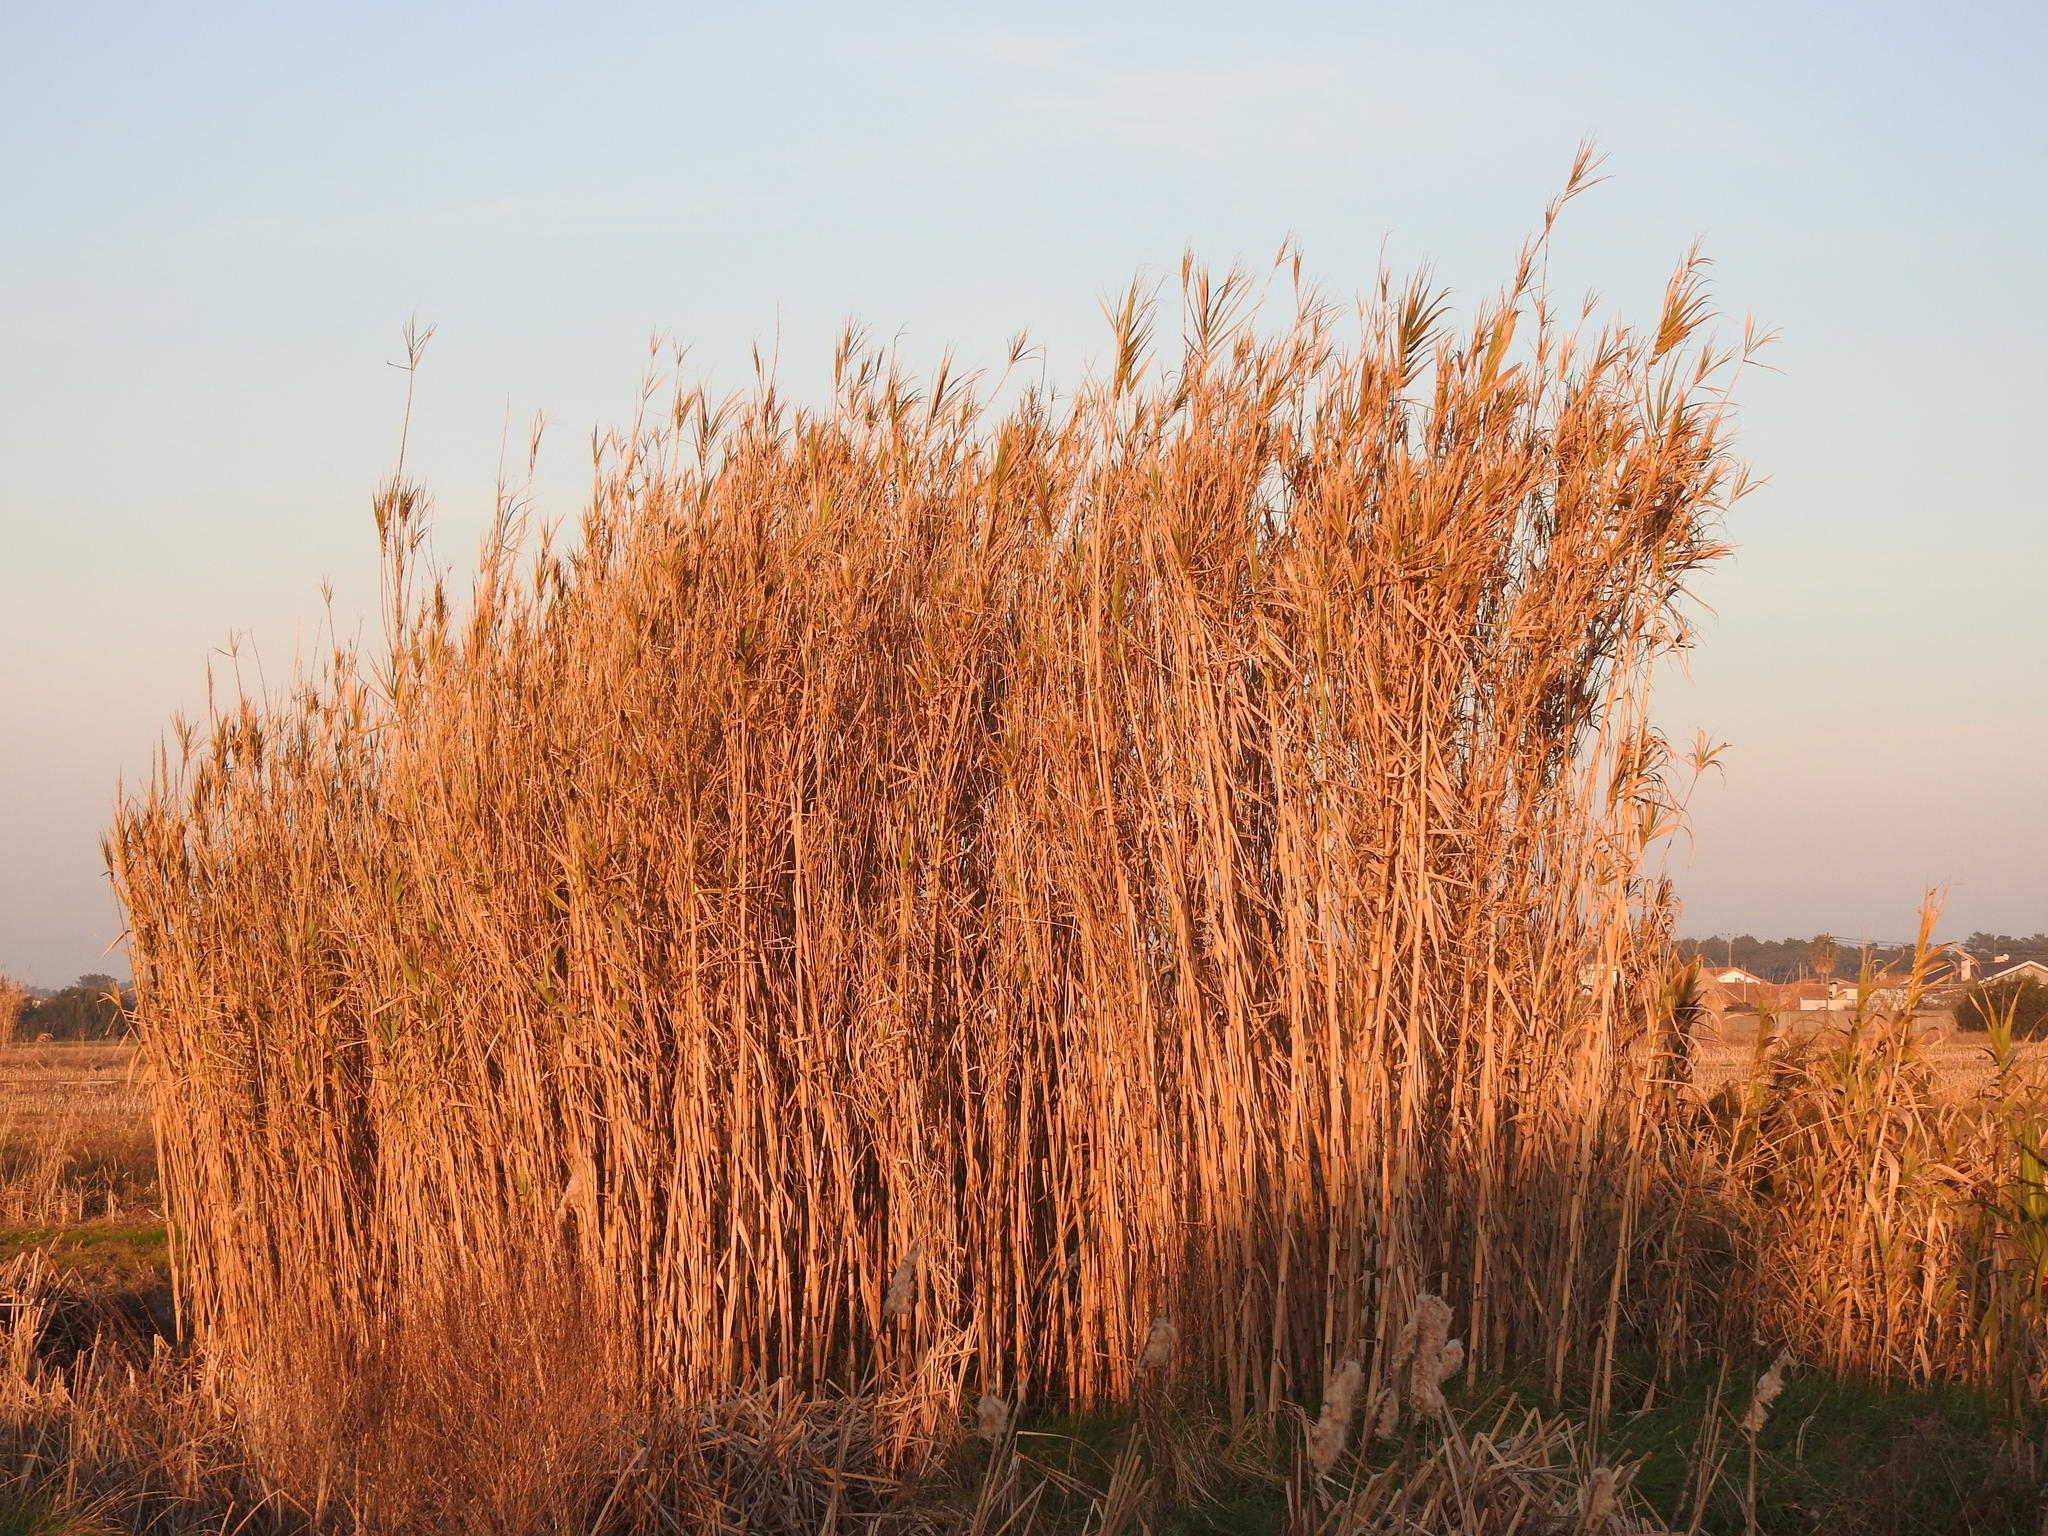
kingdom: Plantae
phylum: Tracheophyta
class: Liliopsida
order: Poales
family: Poaceae
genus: Arundo
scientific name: Arundo donax
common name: Giant reed
